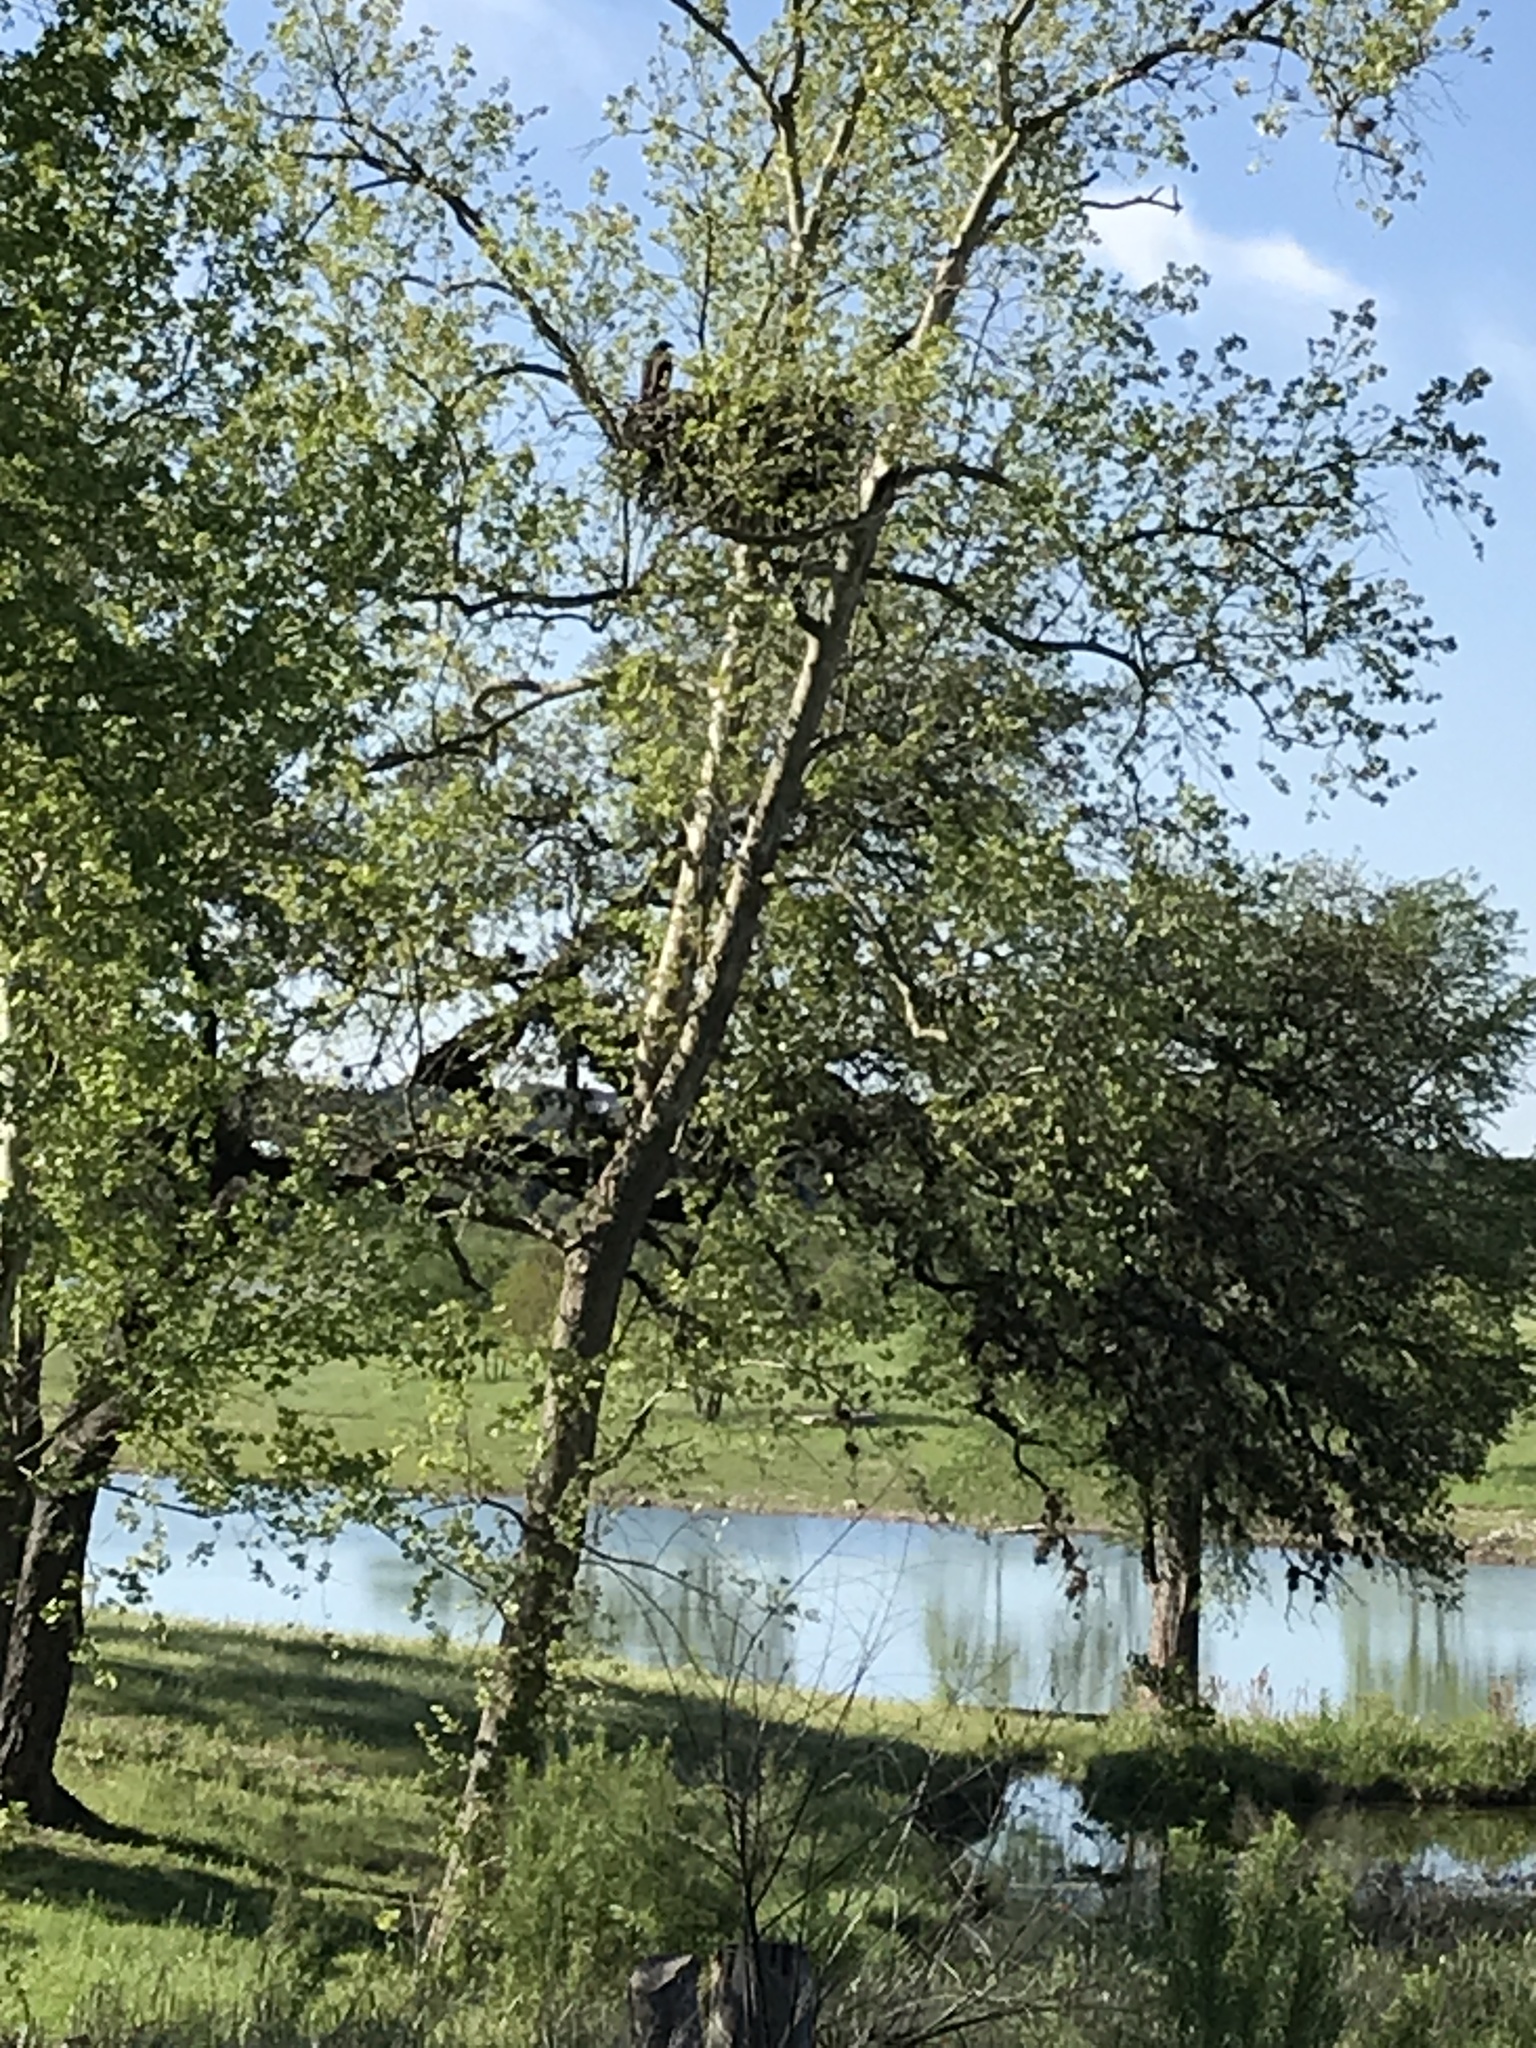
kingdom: Animalia
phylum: Chordata
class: Aves
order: Accipitriformes
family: Accipitridae
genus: Haliaeetus
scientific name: Haliaeetus leucocephalus
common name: Bald eagle
